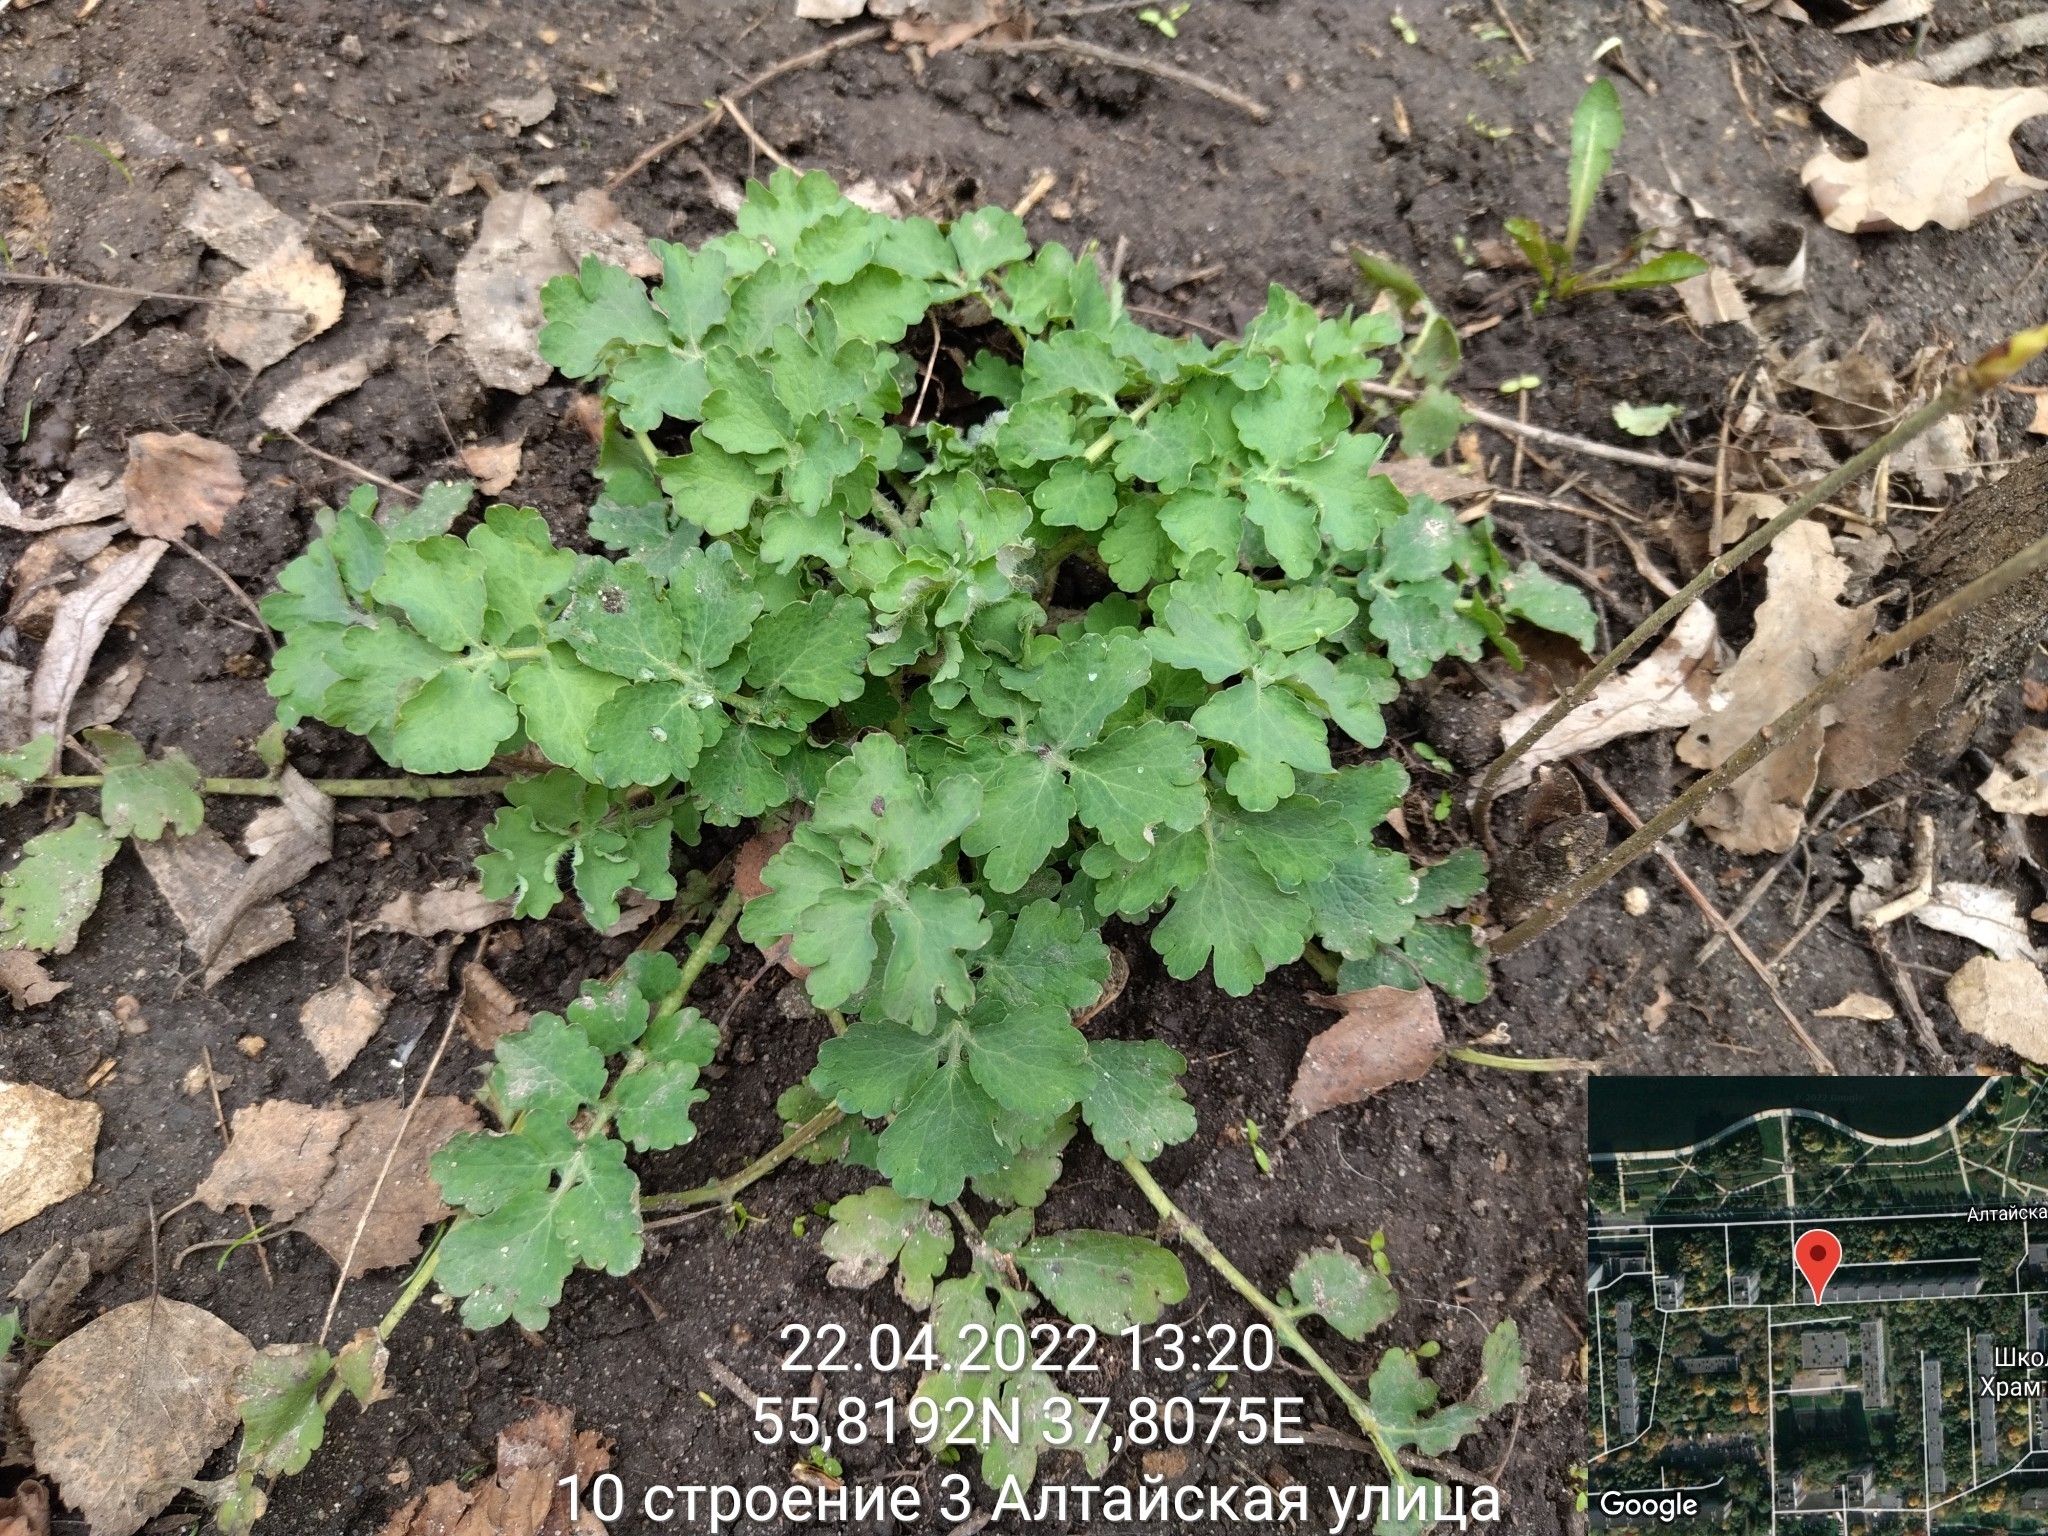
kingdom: Plantae
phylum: Tracheophyta
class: Magnoliopsida
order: Ranunculales
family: Papaveraceae
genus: Chelidonium
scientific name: Chelidonium majus
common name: Greater celandine
